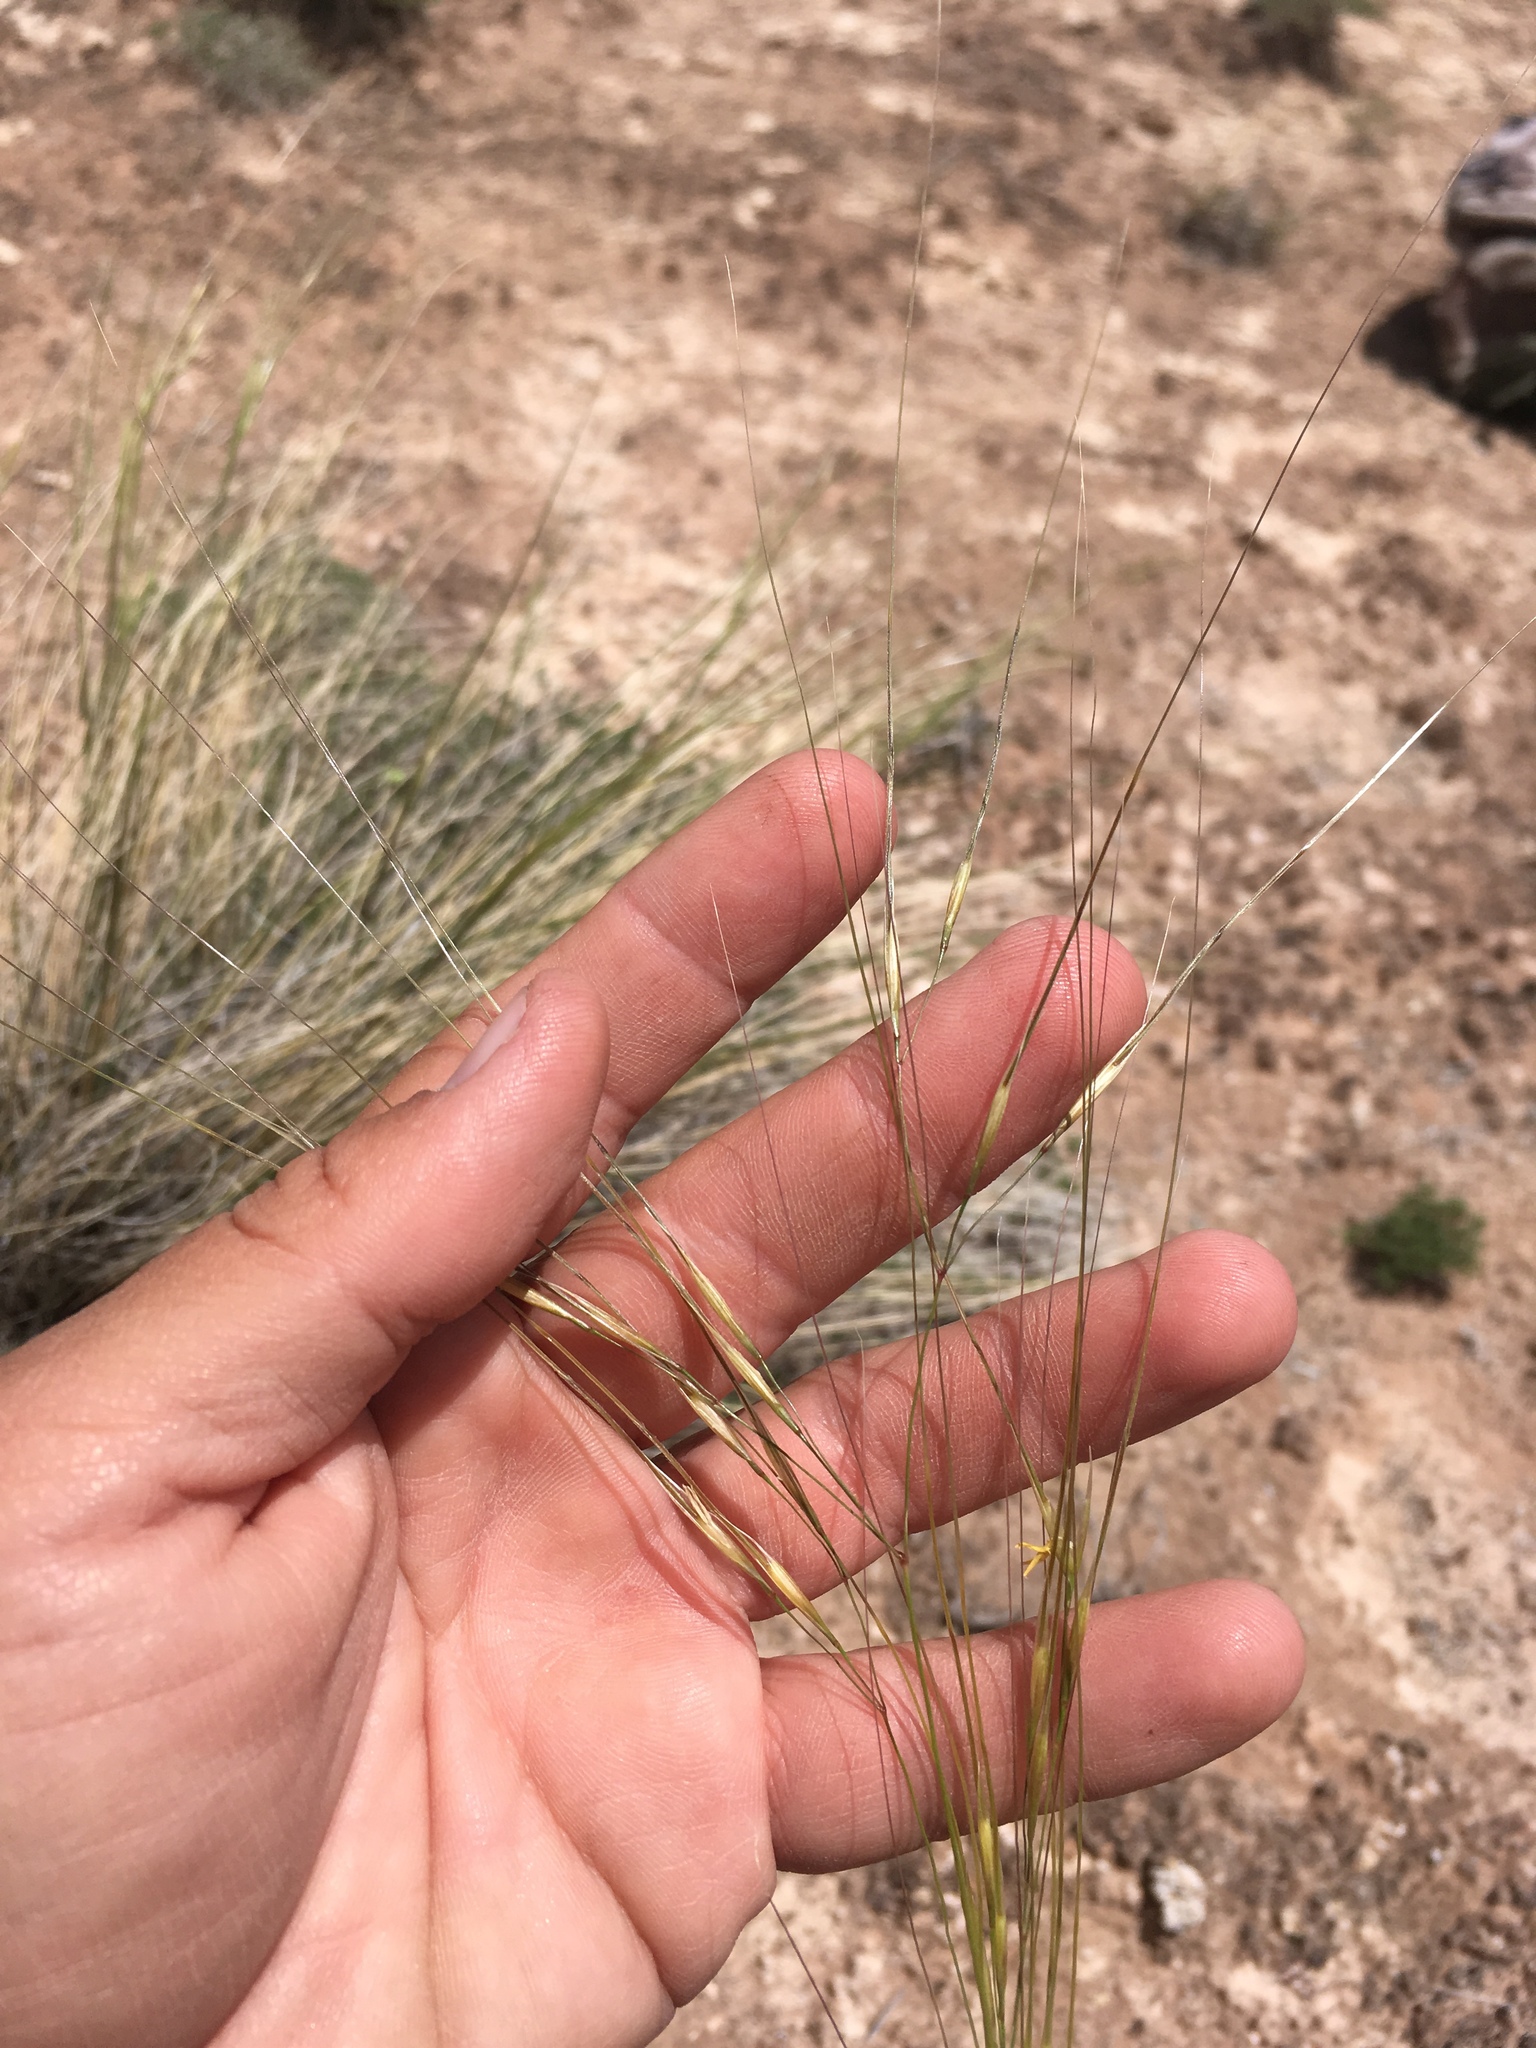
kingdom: Plantae
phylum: Tracheophyta
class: Liliopsida
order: Poales
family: Poaceae
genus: Hesperostipa
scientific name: Hesperostipa comata
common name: Needle-and-thread grass
